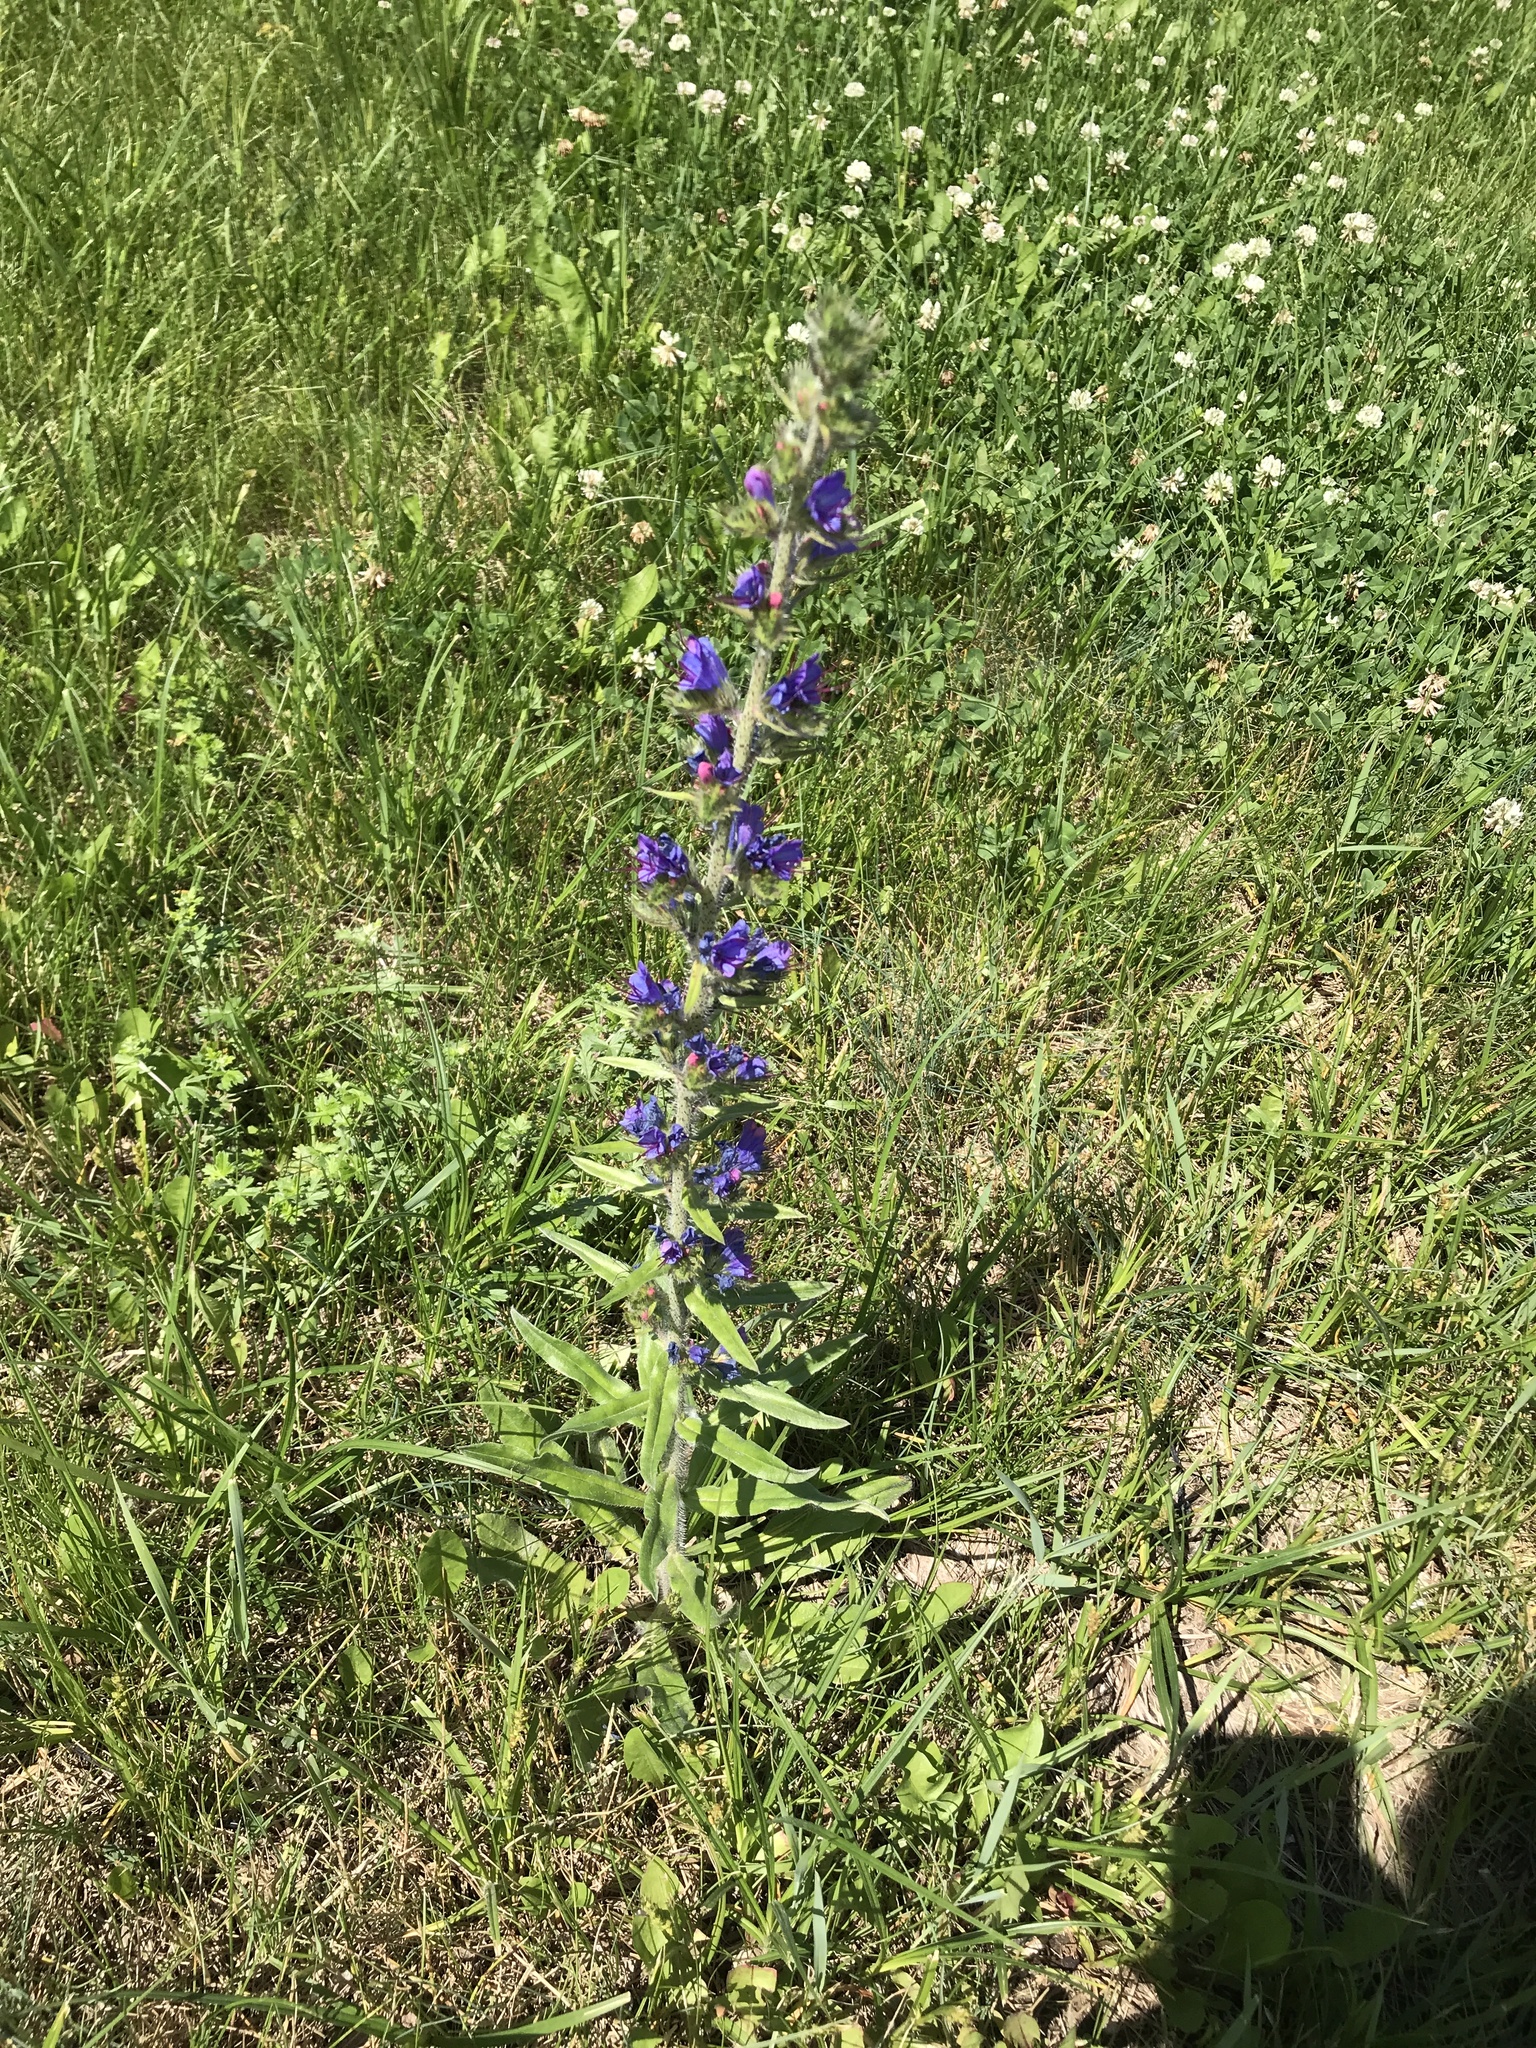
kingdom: Plantae
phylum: Tracheophyta
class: Magnoliopsida
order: Boraginales
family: Boraginaceae
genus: Echium
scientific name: Echium vulgare
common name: Common viper's bugloss
